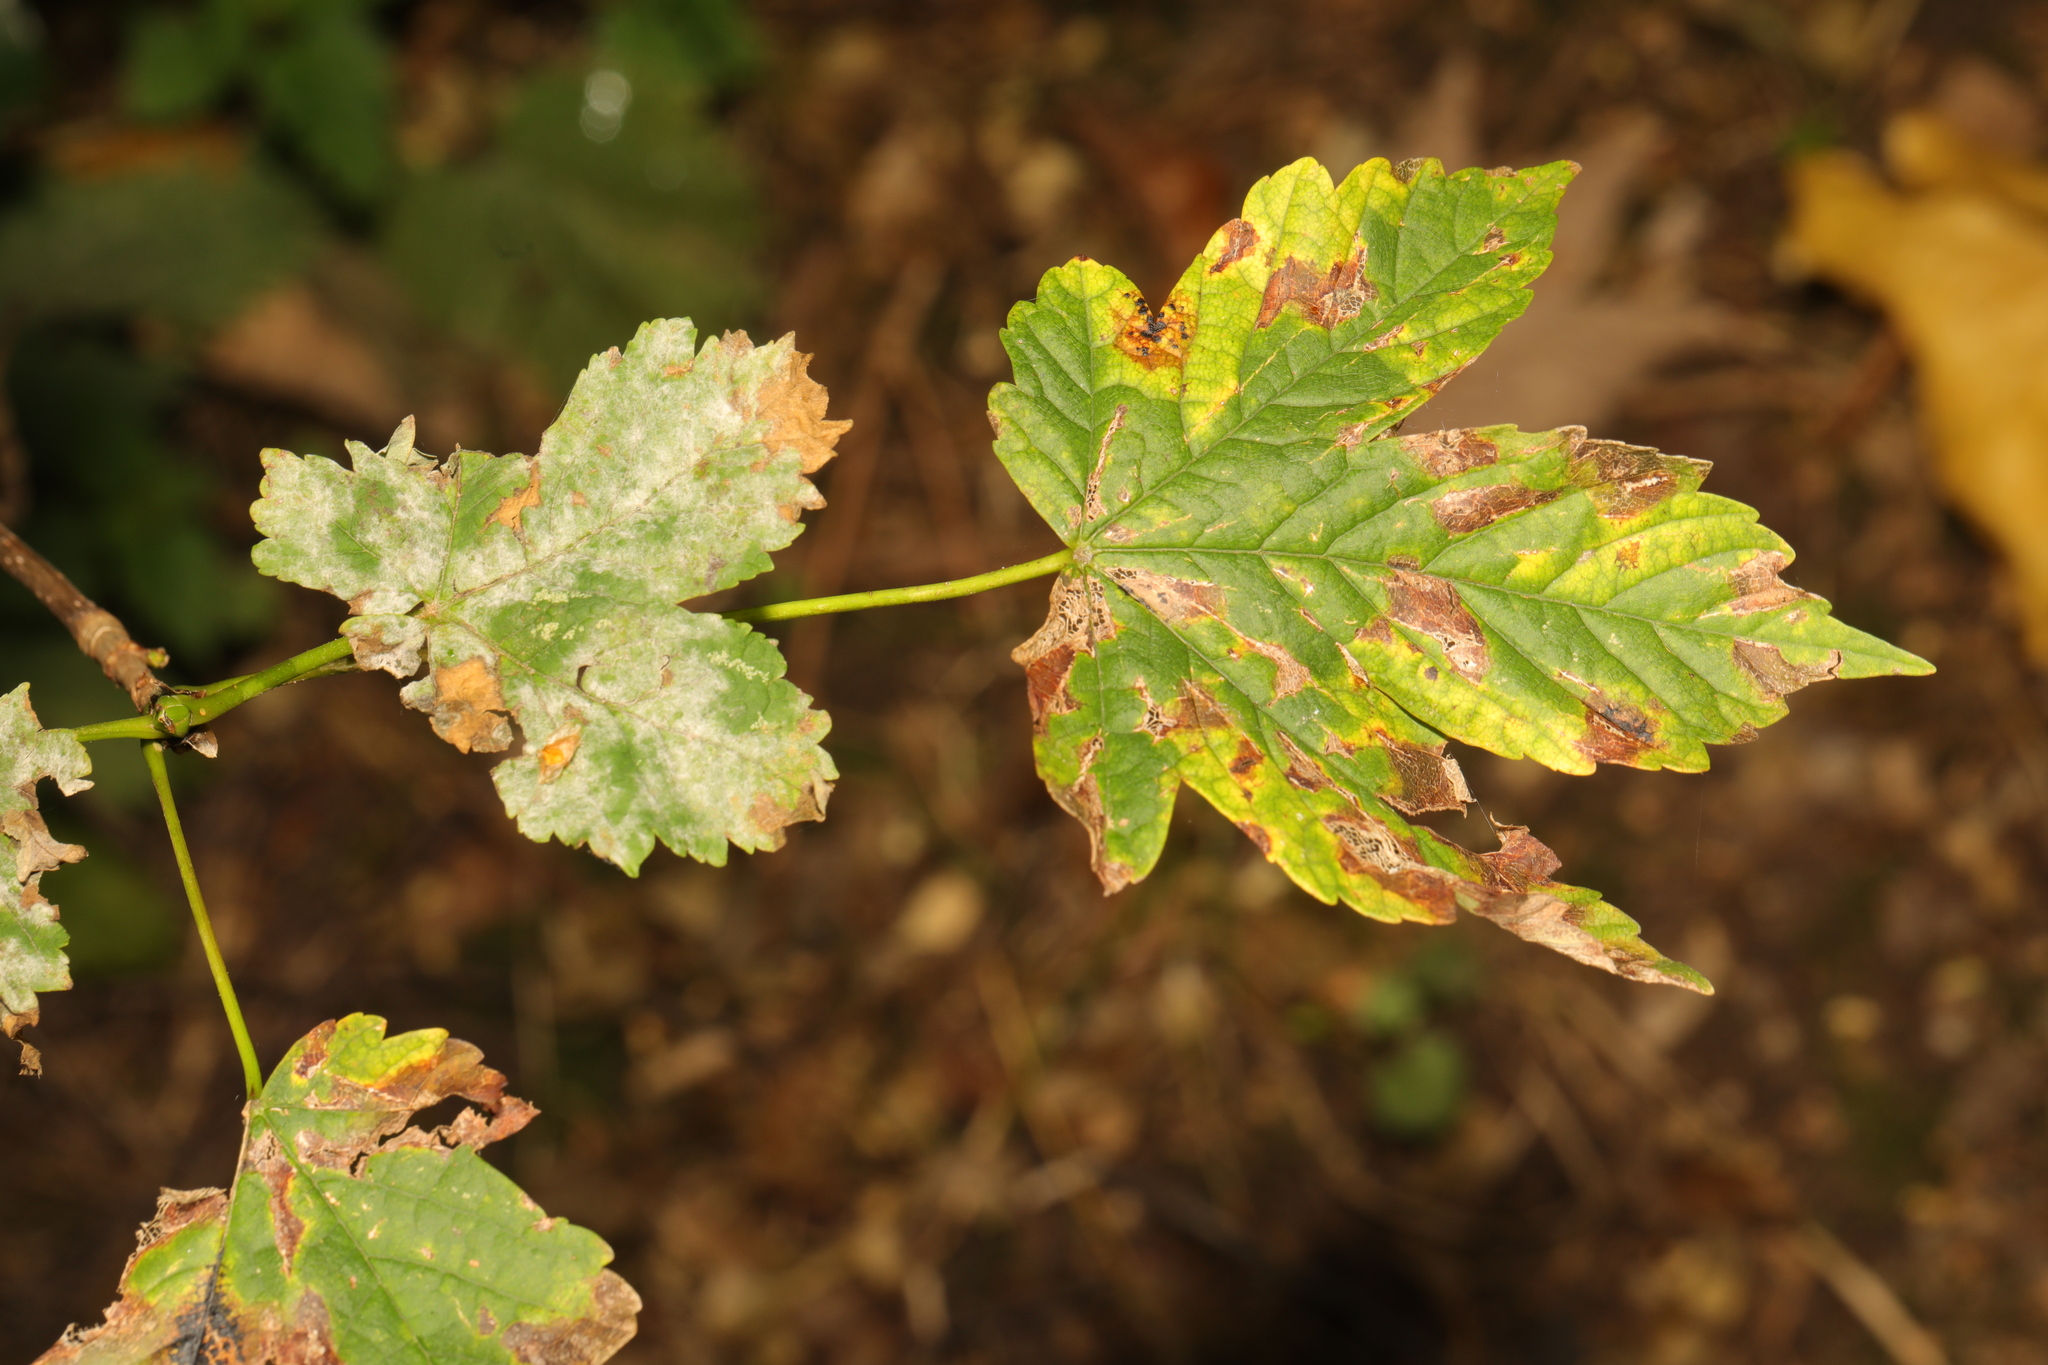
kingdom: Plantae
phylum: Tracheophyta
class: Magnoliopsida
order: Sapindales
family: Sapindaceae
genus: Acer
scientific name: Acer pseudoplatanus
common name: Sycamore
